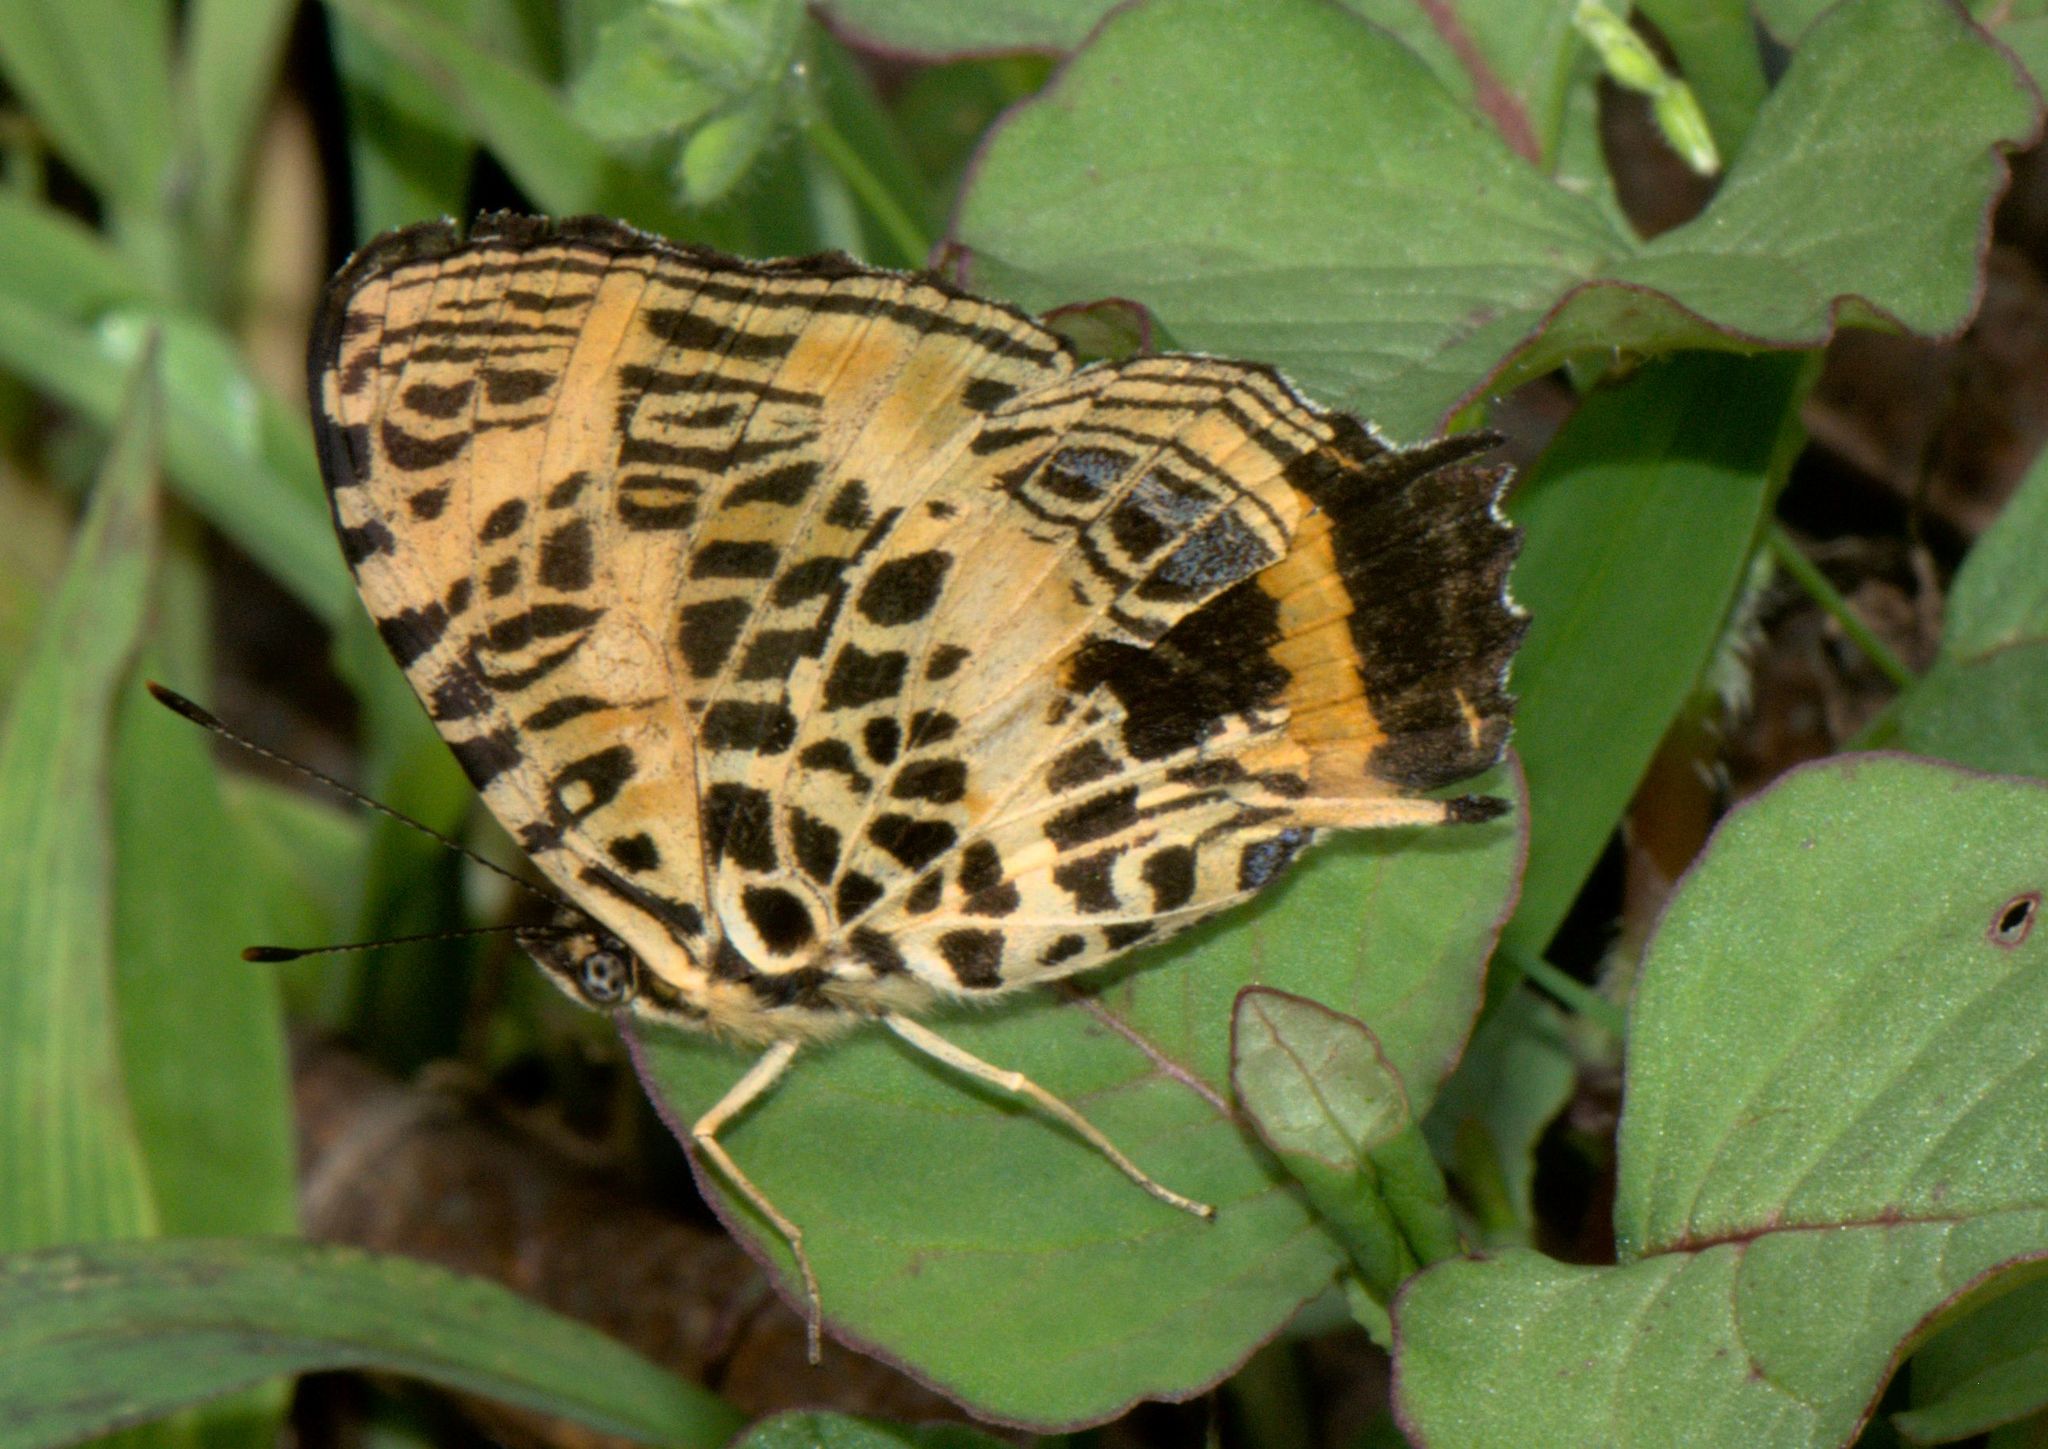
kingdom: Animalia
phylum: Arthropoda
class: Insecta
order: Lepidoptera
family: Nymphalidae
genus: Symbrenthia
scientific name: Symbrenthia niphanda
